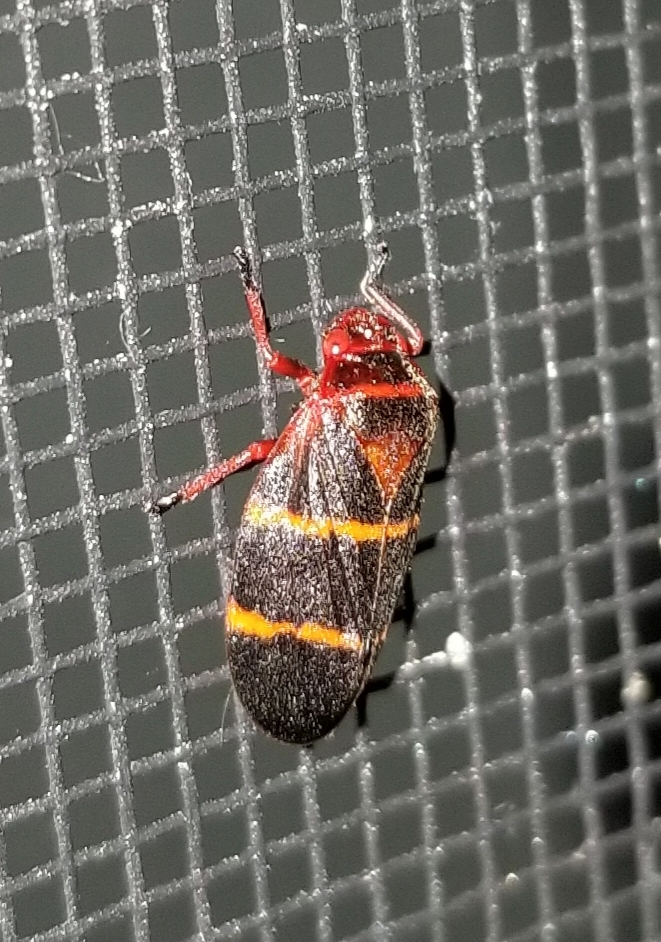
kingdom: Animalia
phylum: Arthropoda
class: Insecta
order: Hemiptera
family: Cercopidae
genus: Prosapia
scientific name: Prosapia bicincta
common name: Twolined spittlebug
